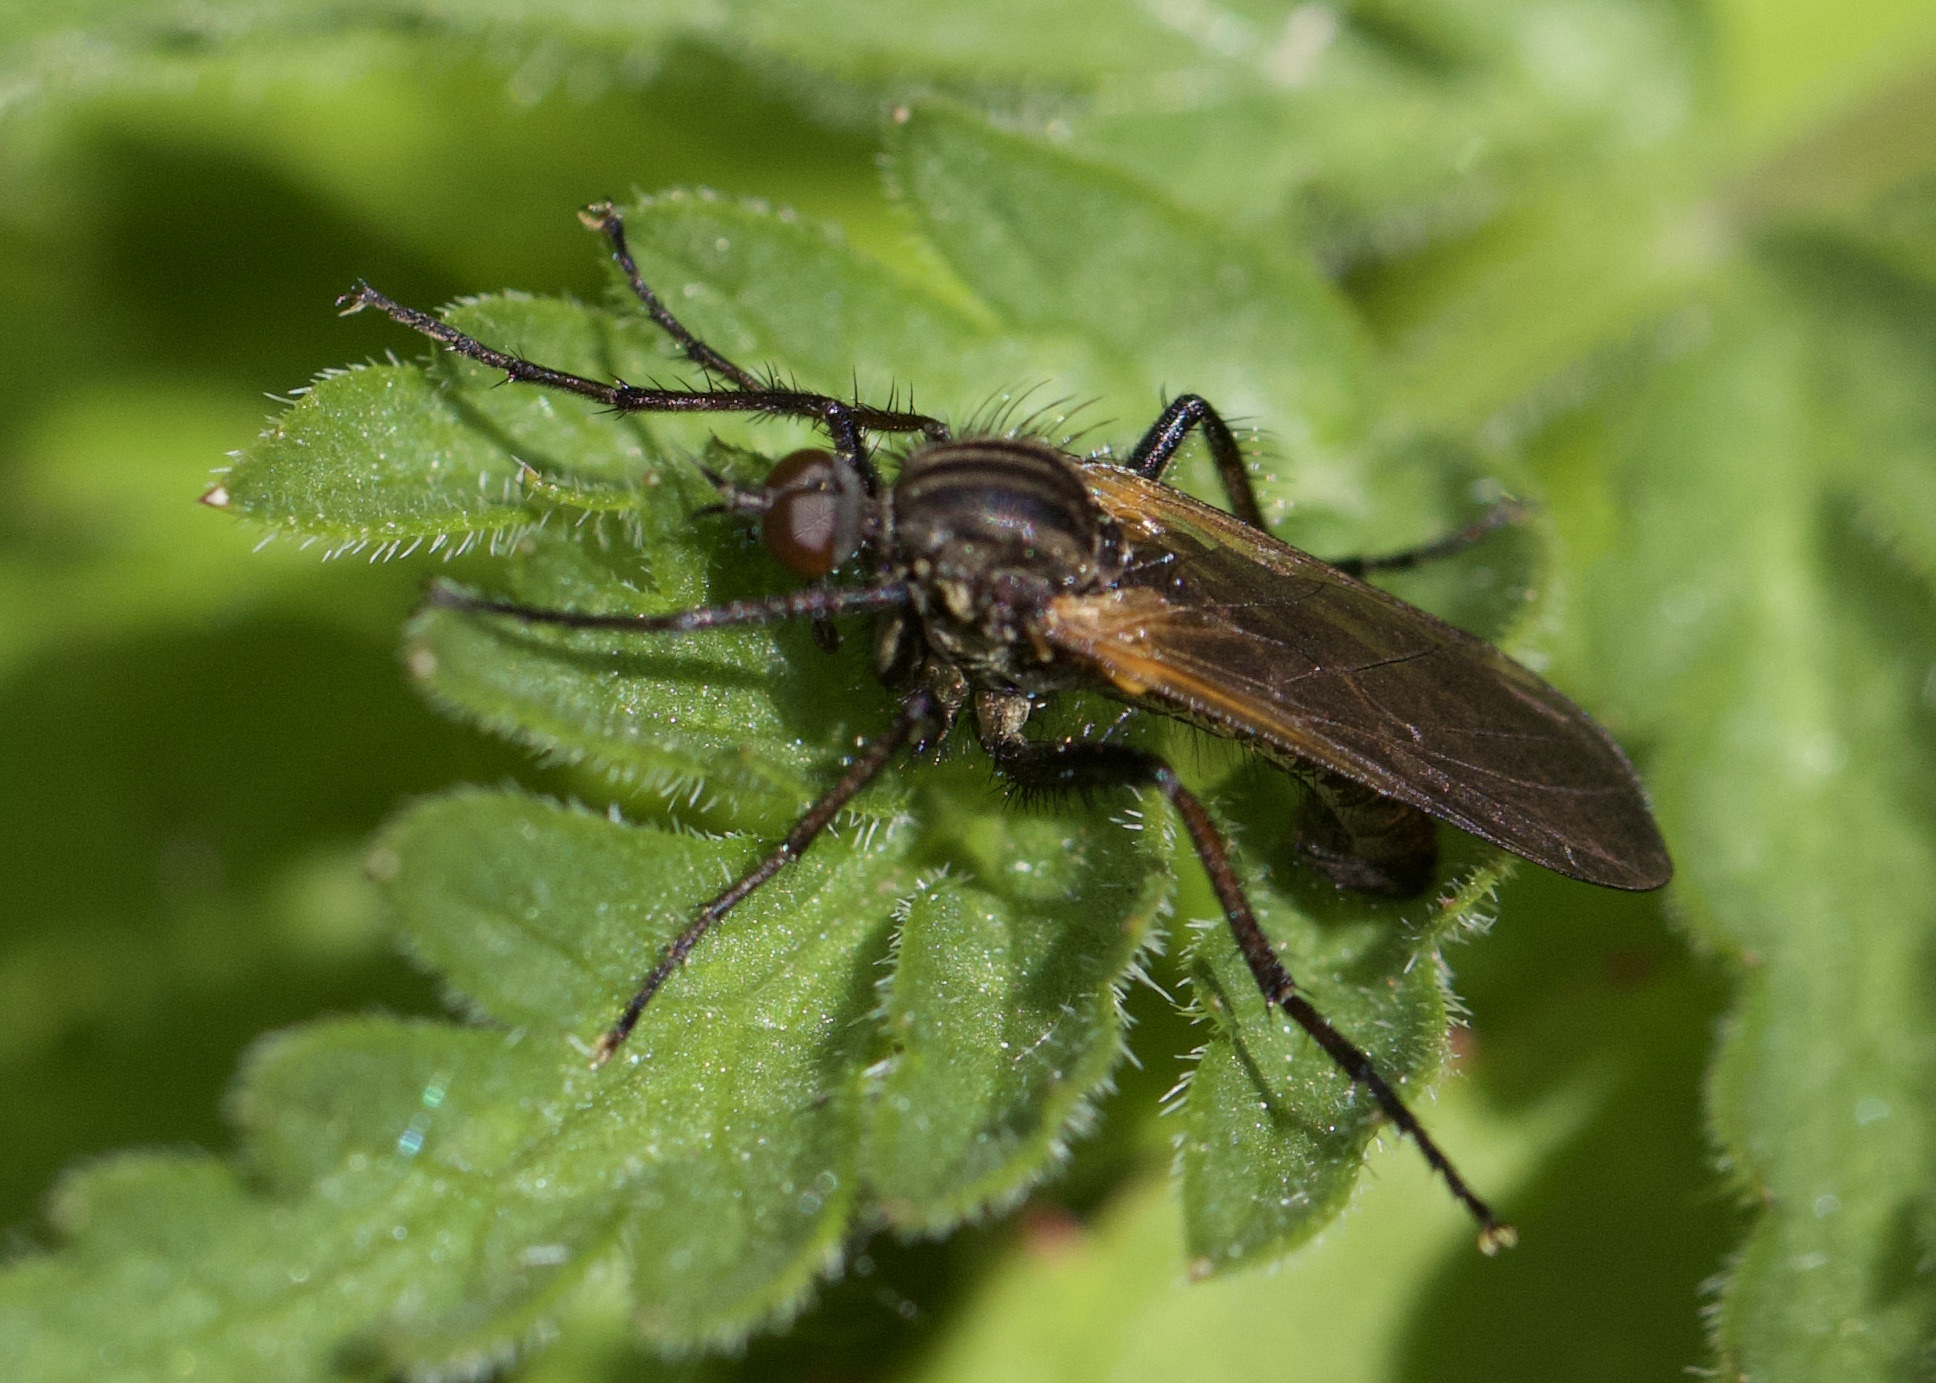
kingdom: Animalia
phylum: Arthropoda
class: Insecta
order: Diptera
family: Empididae
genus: Empis
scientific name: Empis tessellata
